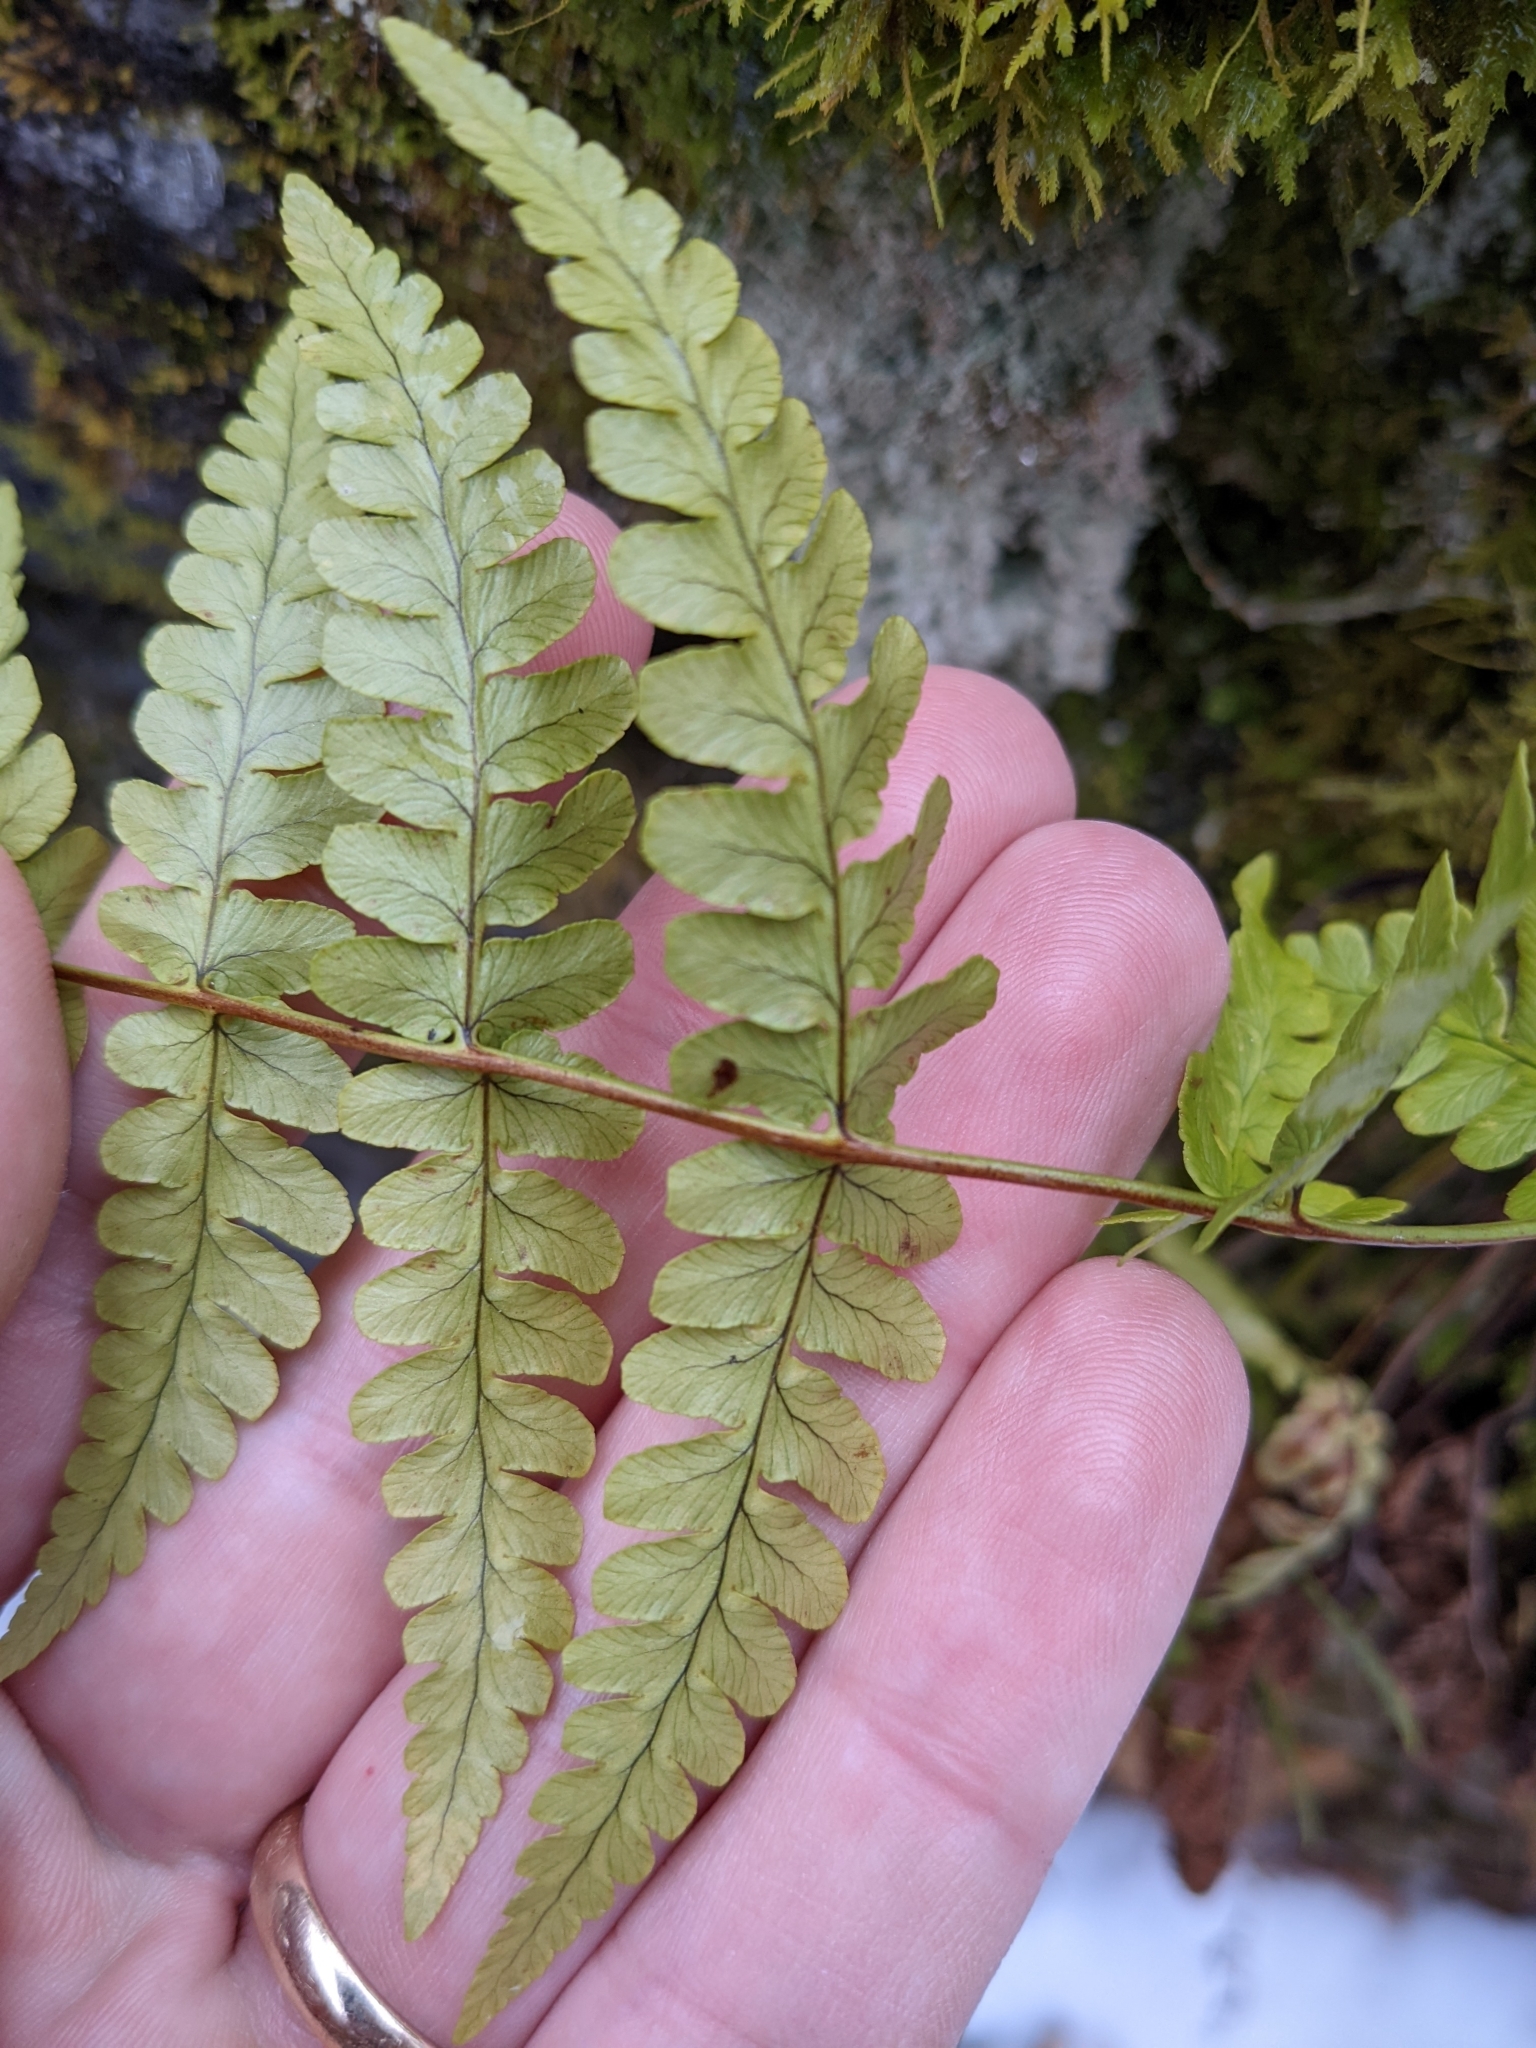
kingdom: Plantae
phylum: Tracheophyta
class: Polypodiopsida
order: Polypodiales
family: Dryopteridaceae
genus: Dryopteris
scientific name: Dryopteris marginalis
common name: Marginal wood fern
